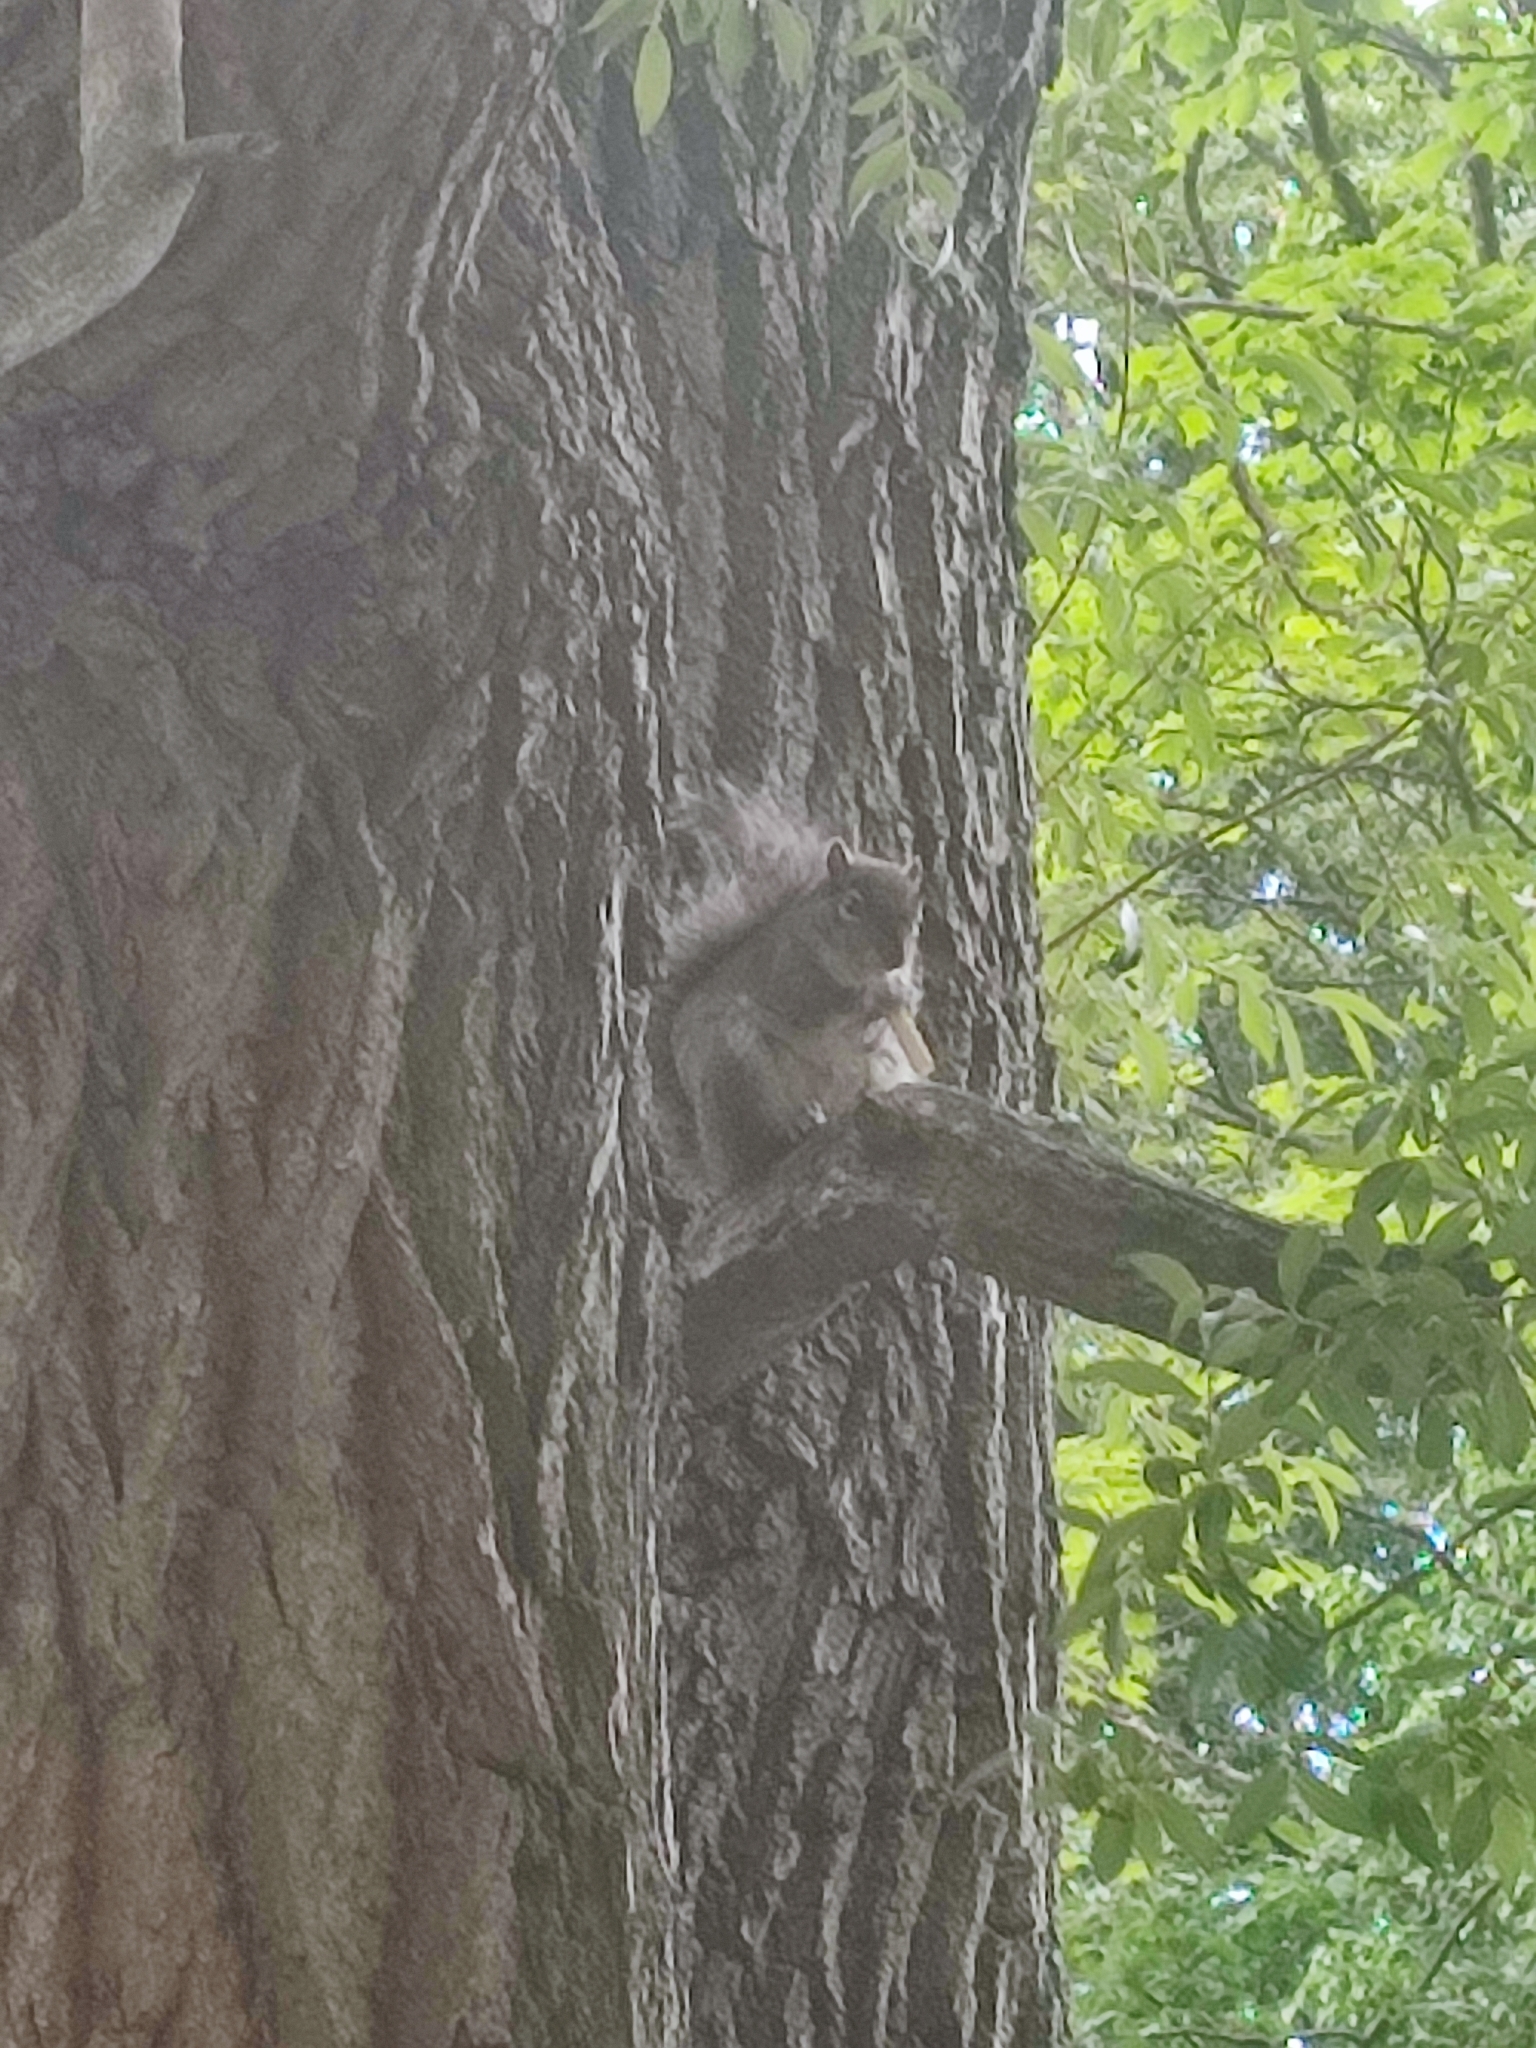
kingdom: Animalia
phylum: Chordata
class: Mammalia
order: Rodentia
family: Sciuridae
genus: Sciurus
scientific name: Sciurus carolinensis
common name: Eastern gray squirrel
